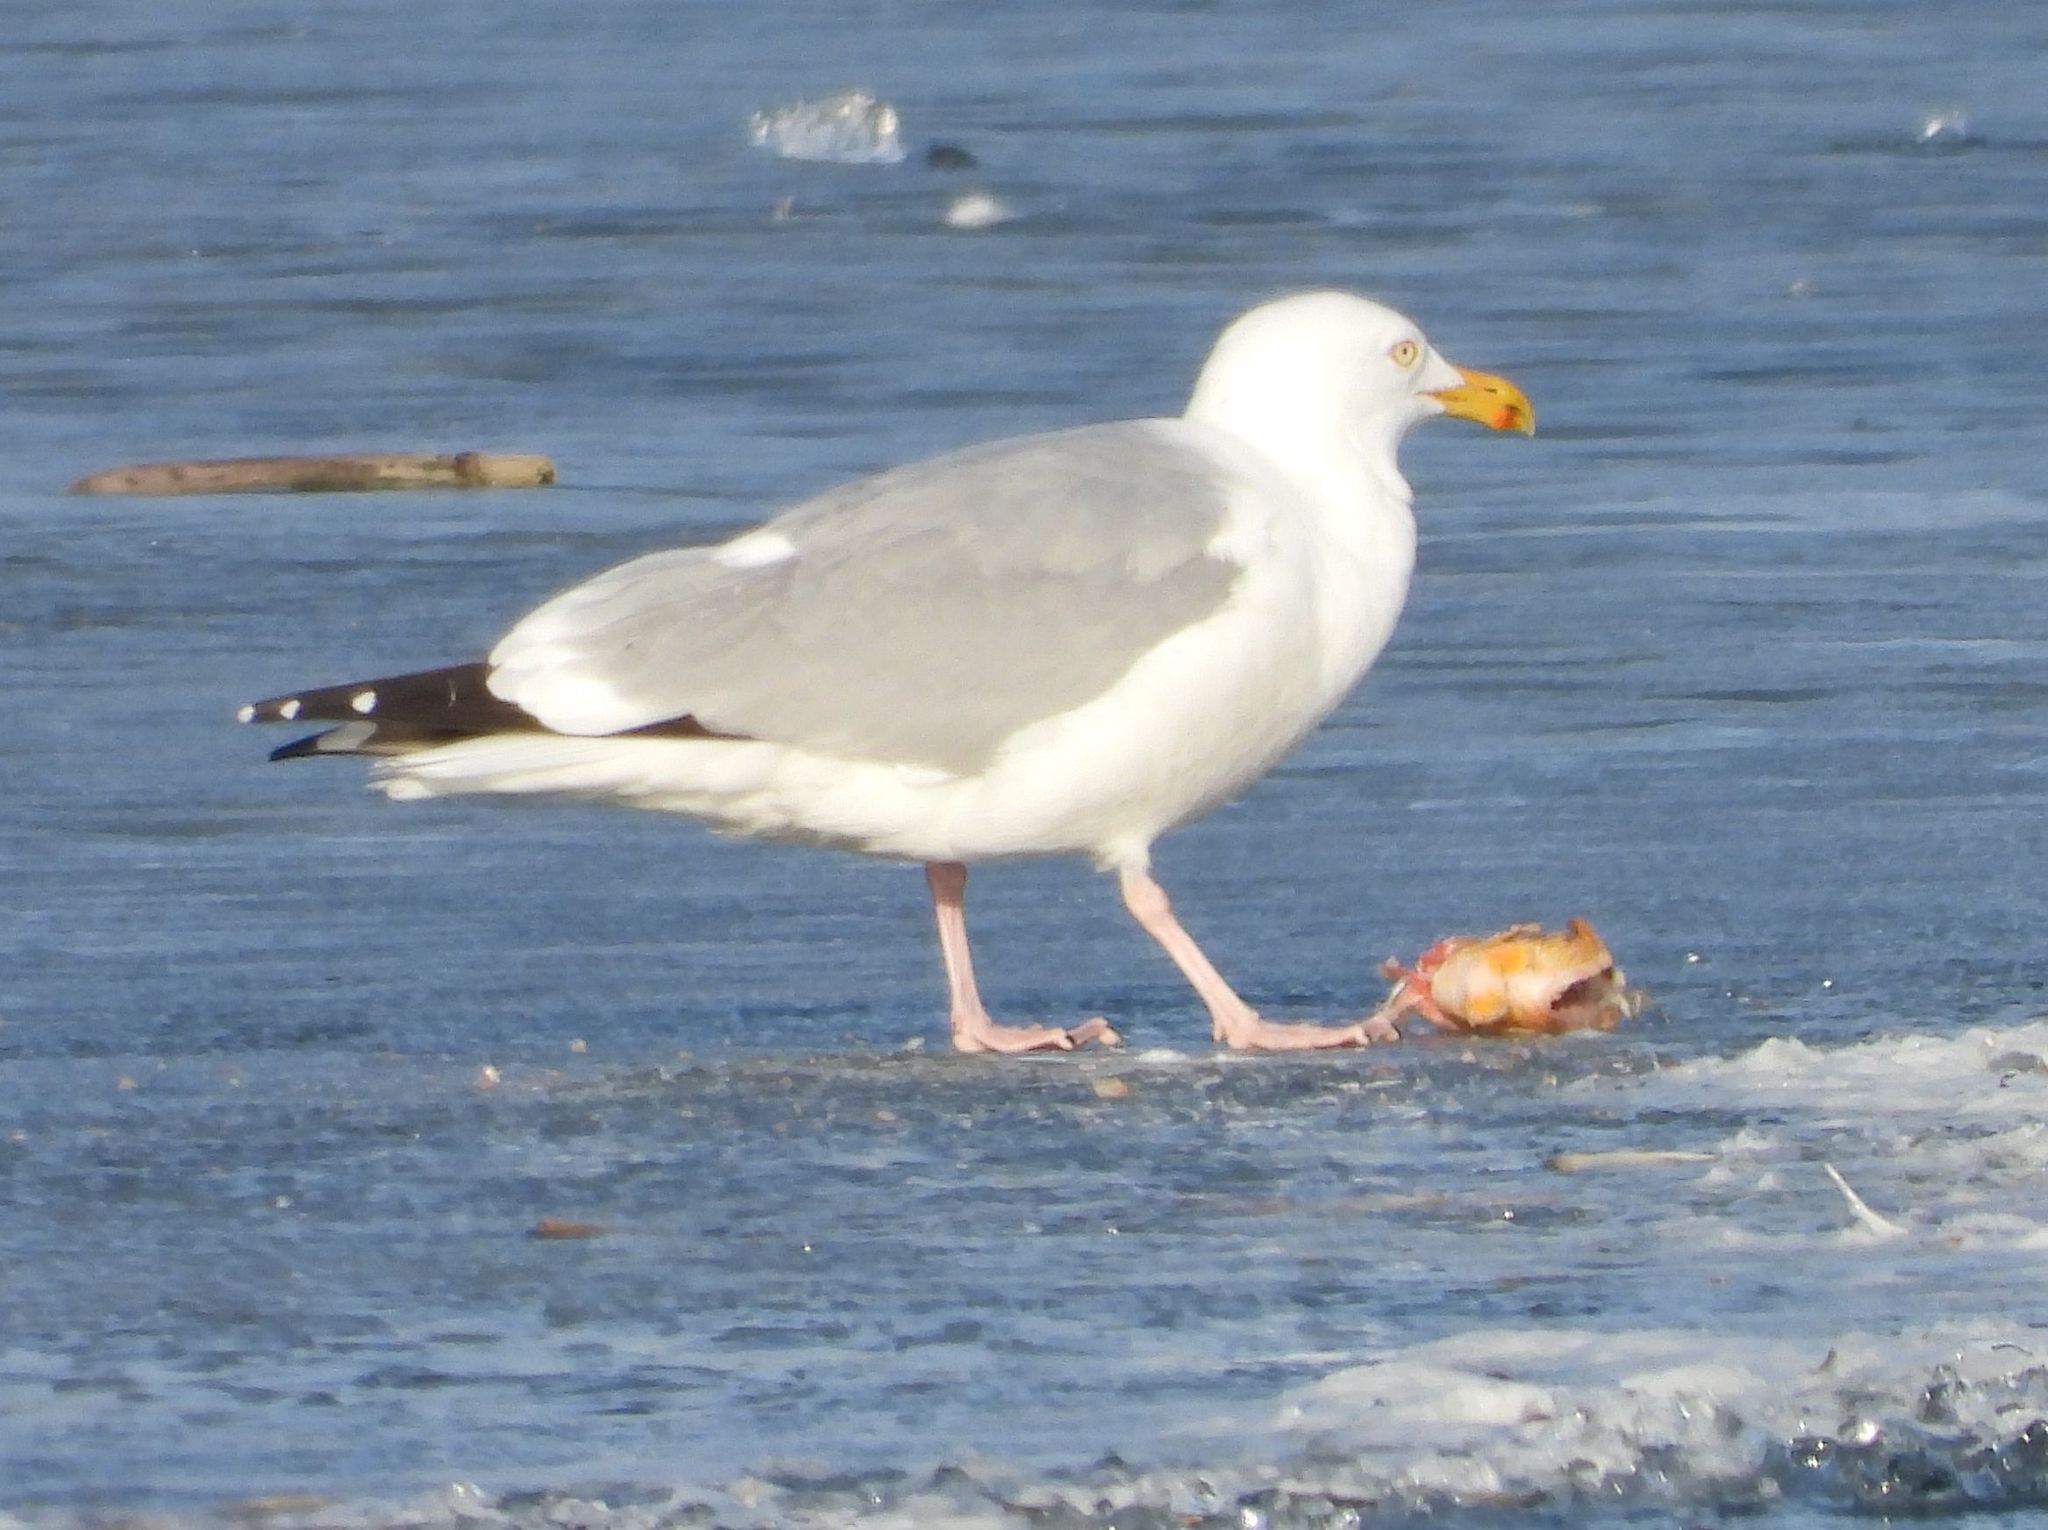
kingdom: Animalia
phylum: Chordata
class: Aves
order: Charadriiformes
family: Laridae
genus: Larus
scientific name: Larus argentatus
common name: Herring gull
